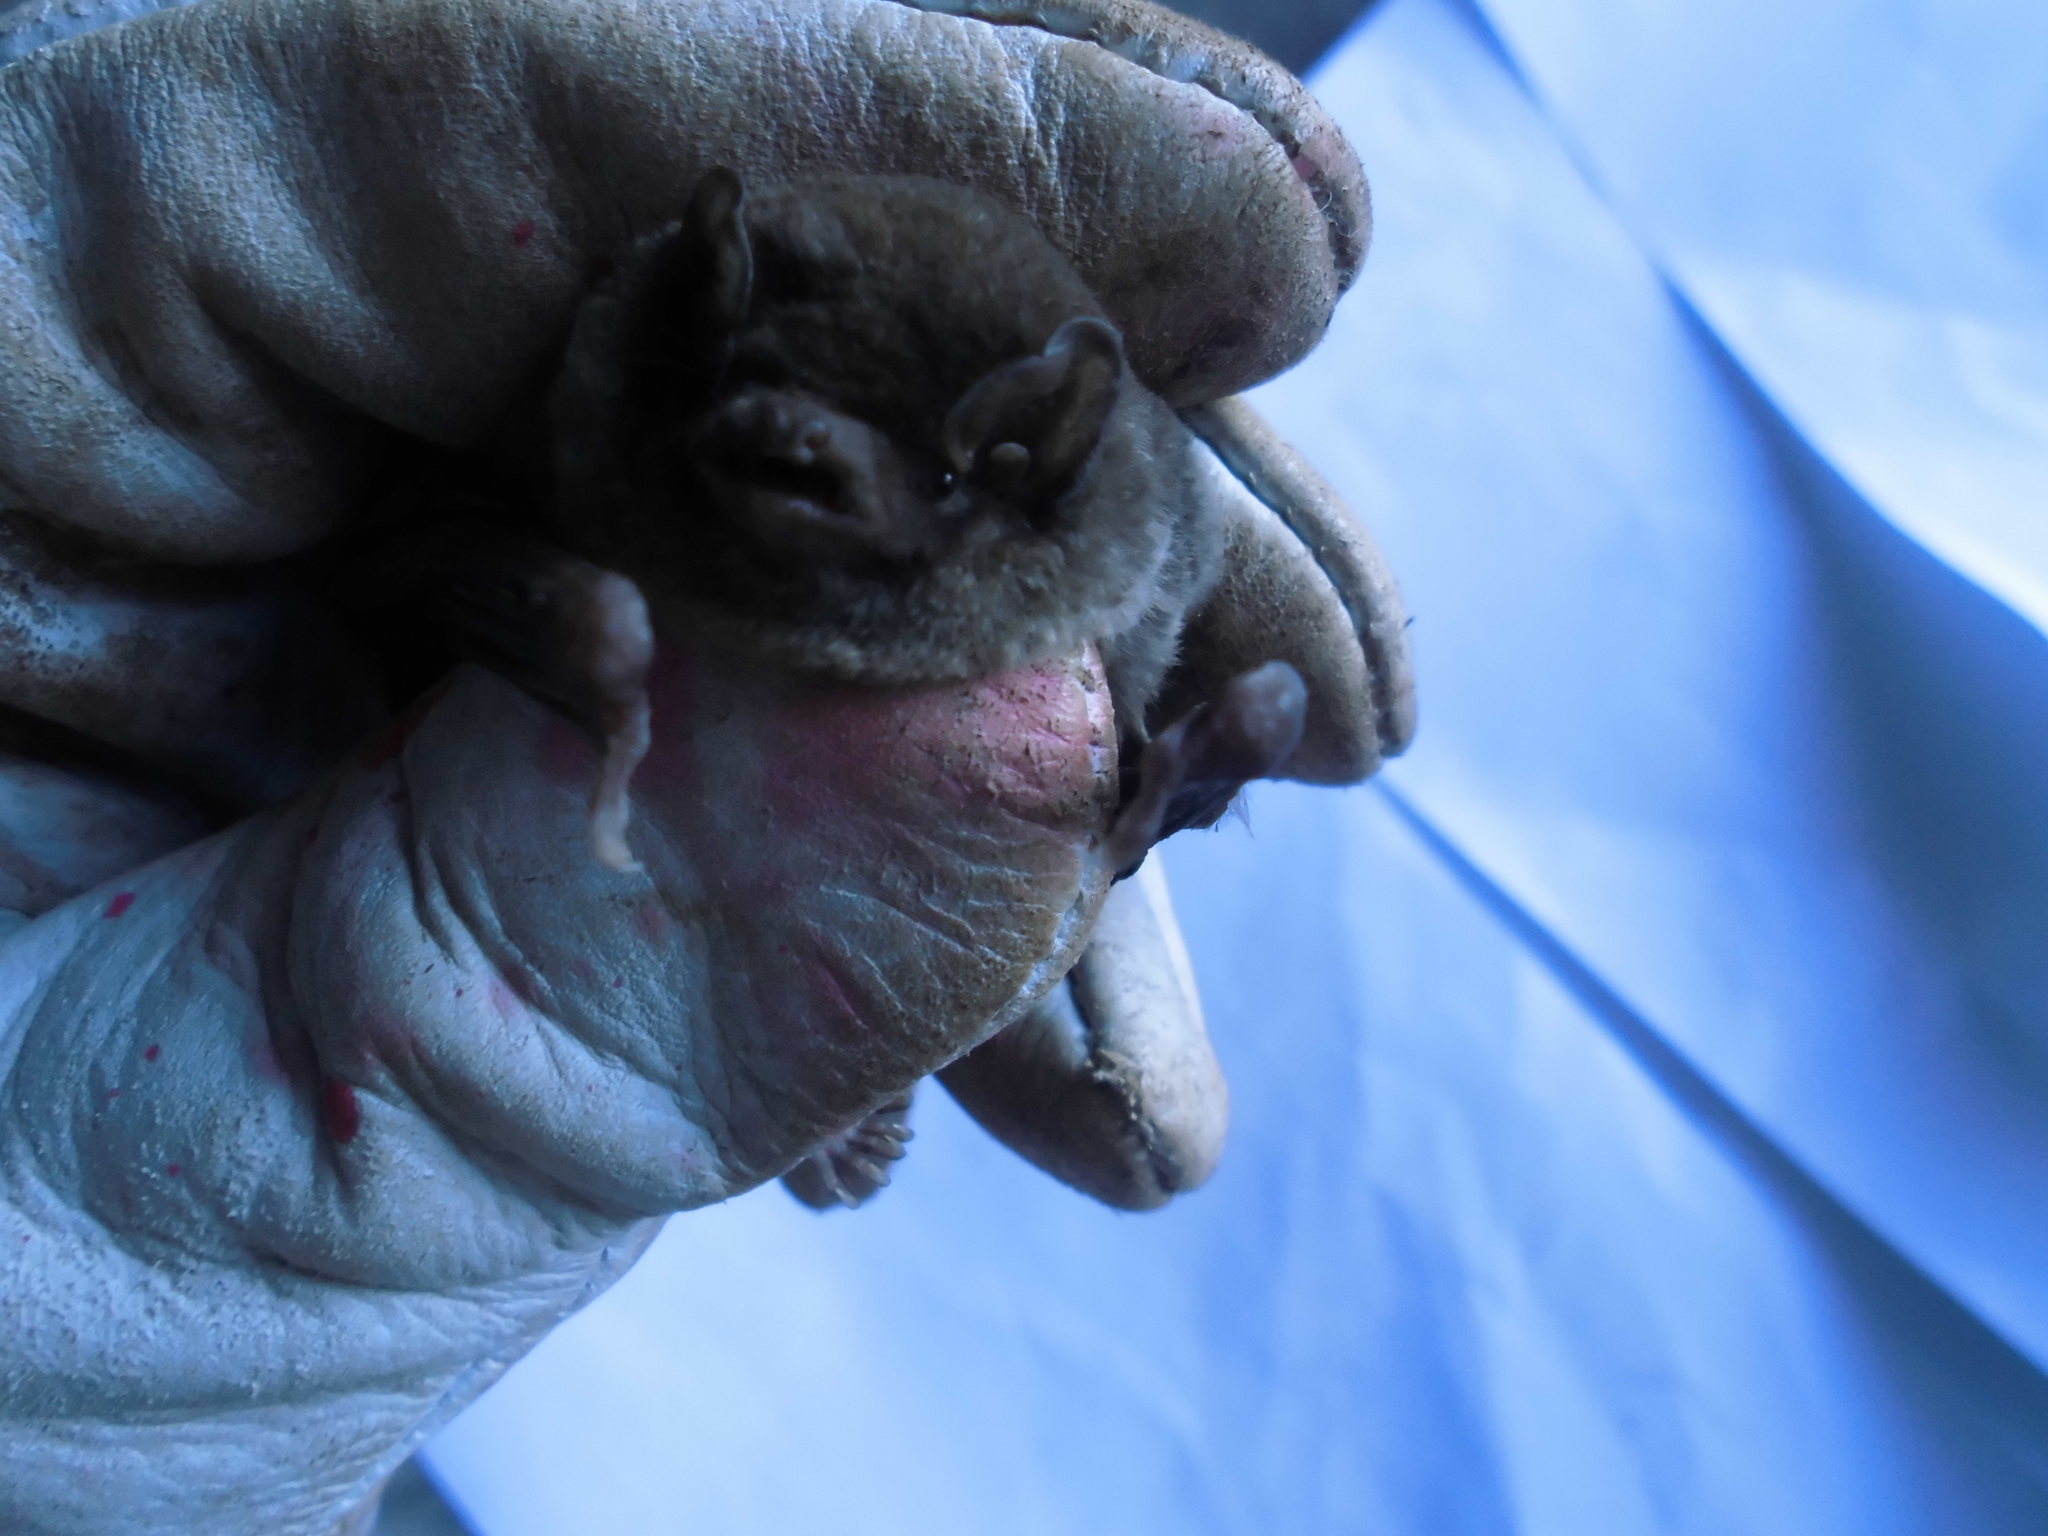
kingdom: Animalia
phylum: Chordata
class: Mammalia
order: Chiroptera
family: Miniopteridae
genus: Miniopterus
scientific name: Miniopterus schreibersii
